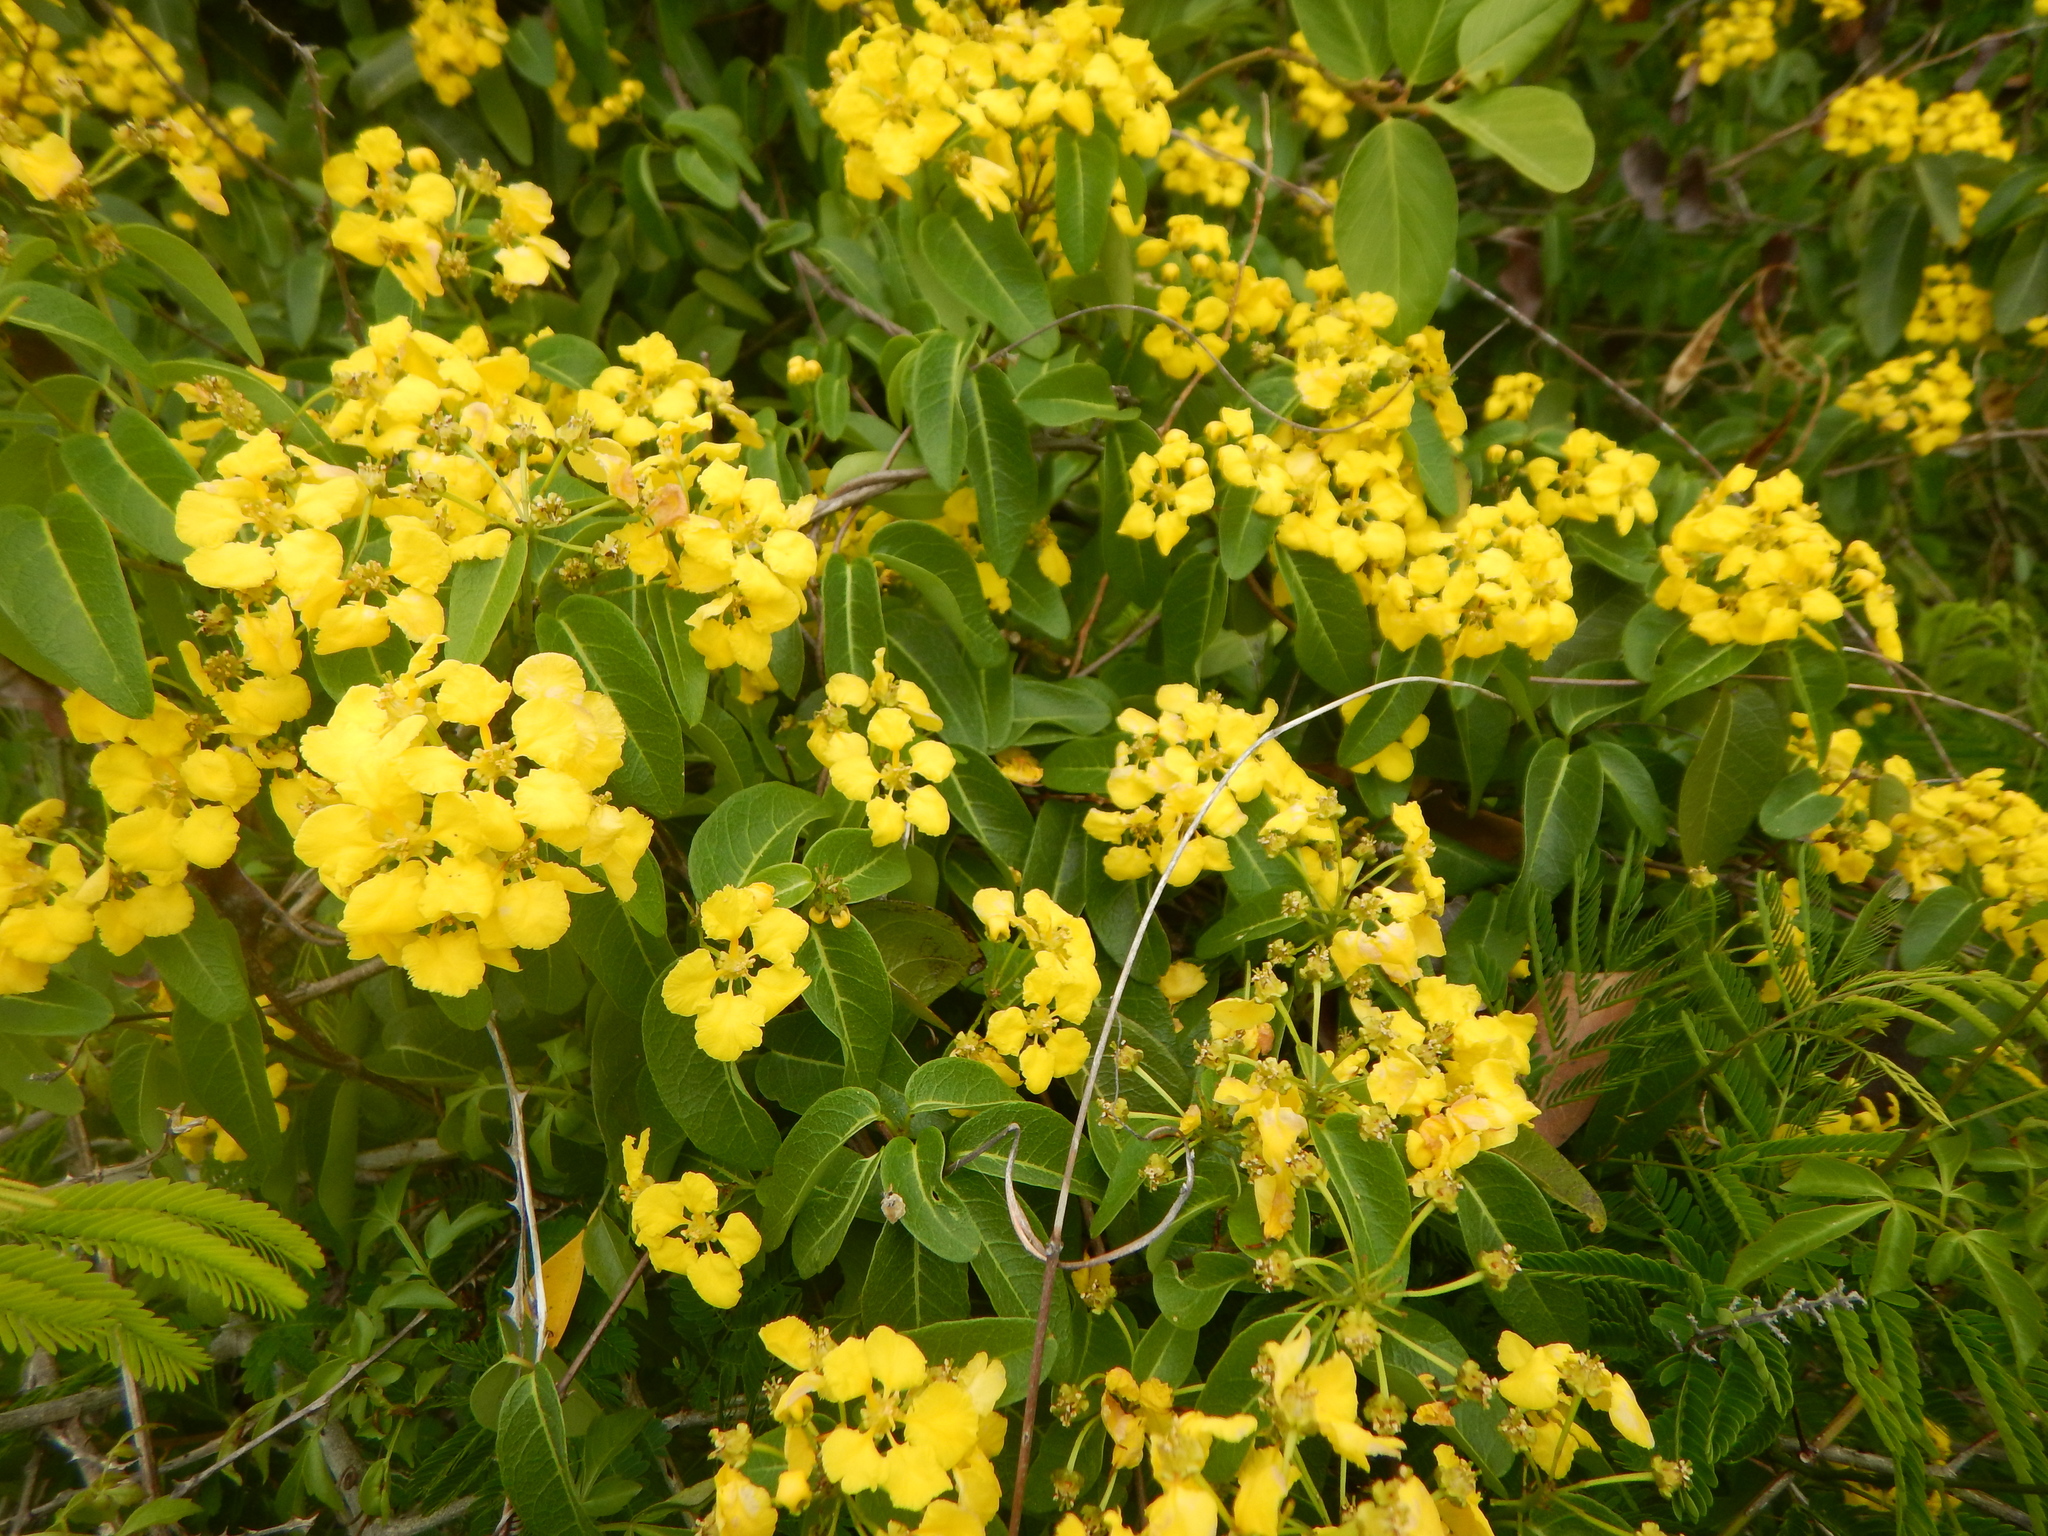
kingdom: Plantae
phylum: Tracheophyta
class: Magnoliopsida
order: Malpighiales
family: Malpighiaceae
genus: Stigmaphyllon
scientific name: Stigmaphyllon emarginatum
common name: Monarch amazonvine
